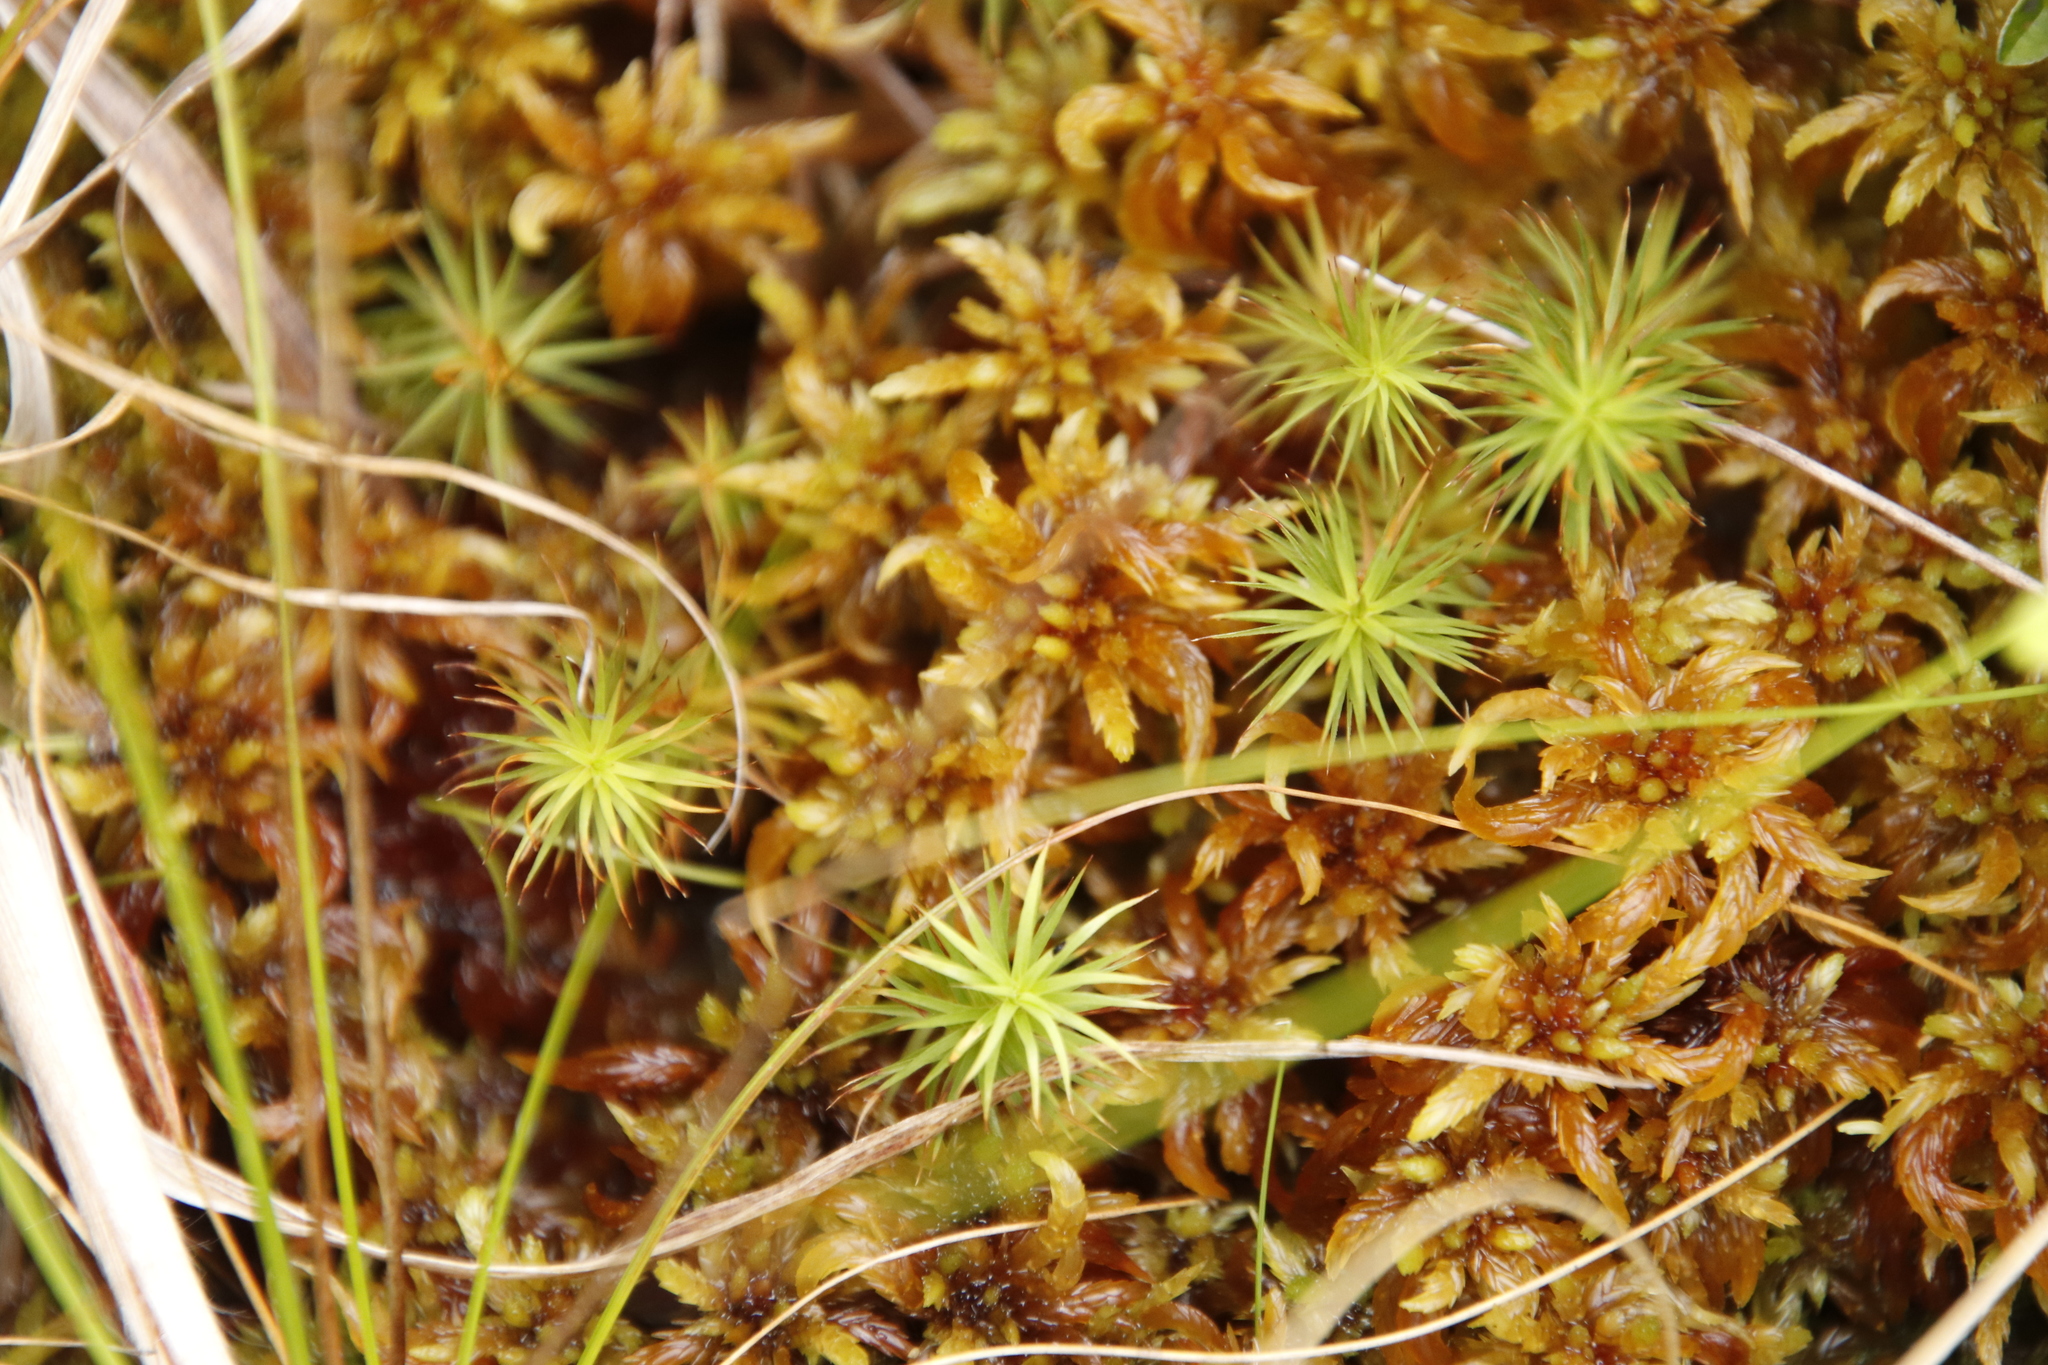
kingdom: Plantae
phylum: Bryophyta
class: Sphagnopsida
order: Sphagnales
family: Sphagnaceae
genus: Sphagnum
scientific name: Sphagnum truncatum
